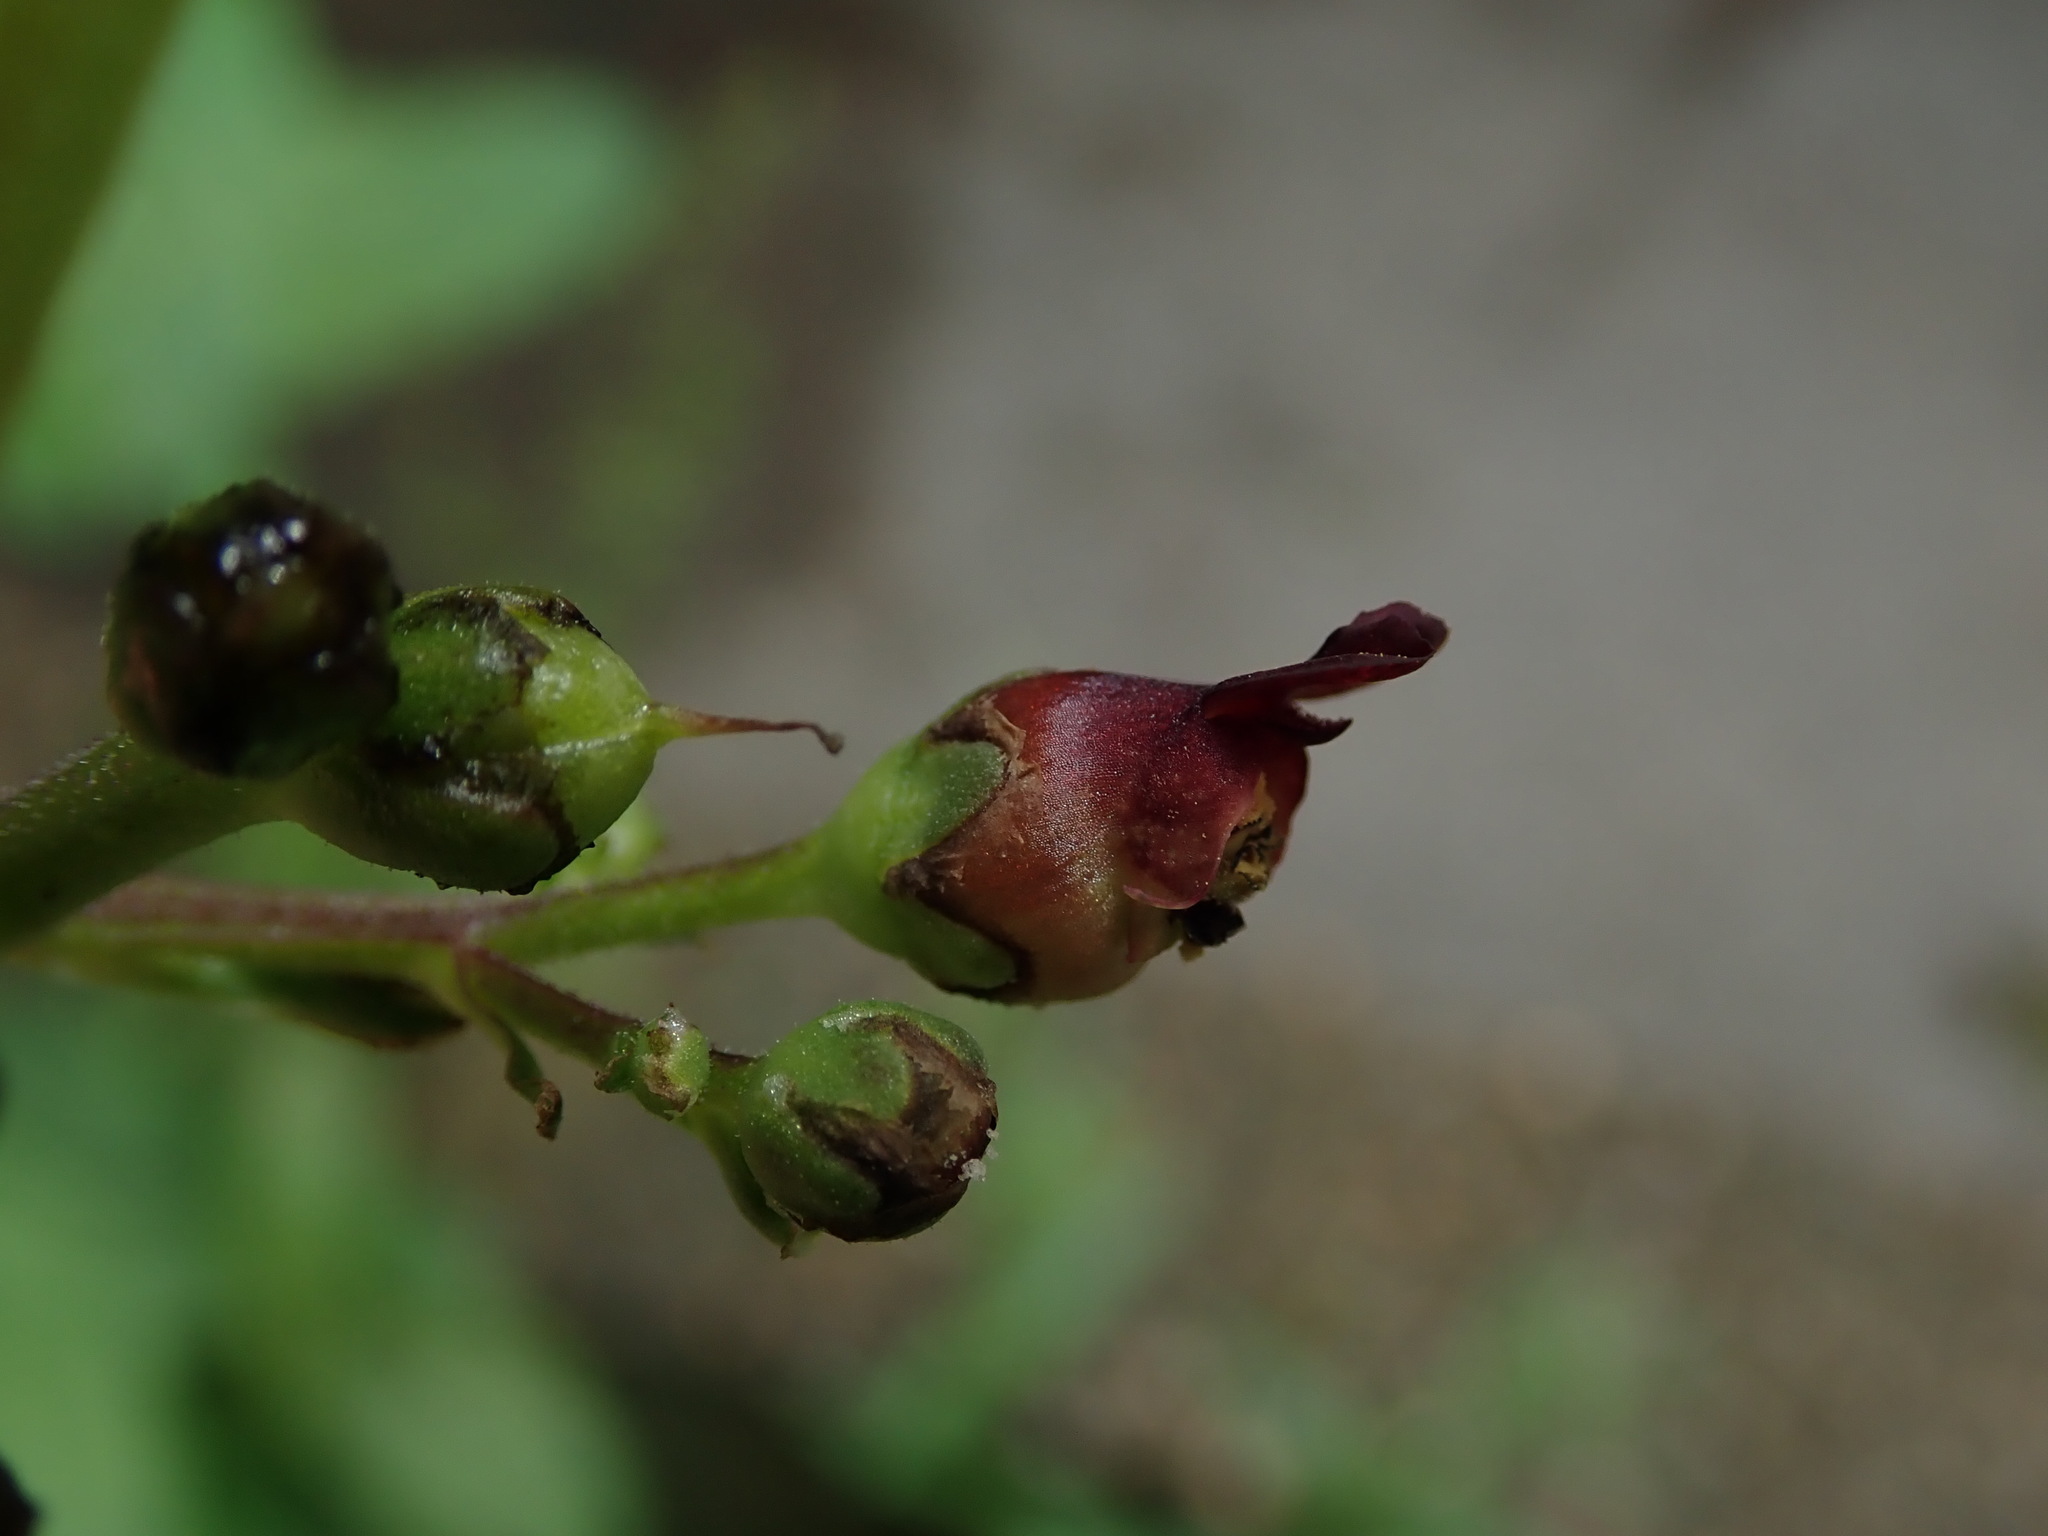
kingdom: Plantae
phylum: Tracheophyta
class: Magnoliopsida
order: Lamiales
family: Scrophulariaceae
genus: Scrophularia
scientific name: Scrophularia nodosa
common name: Common figwort
